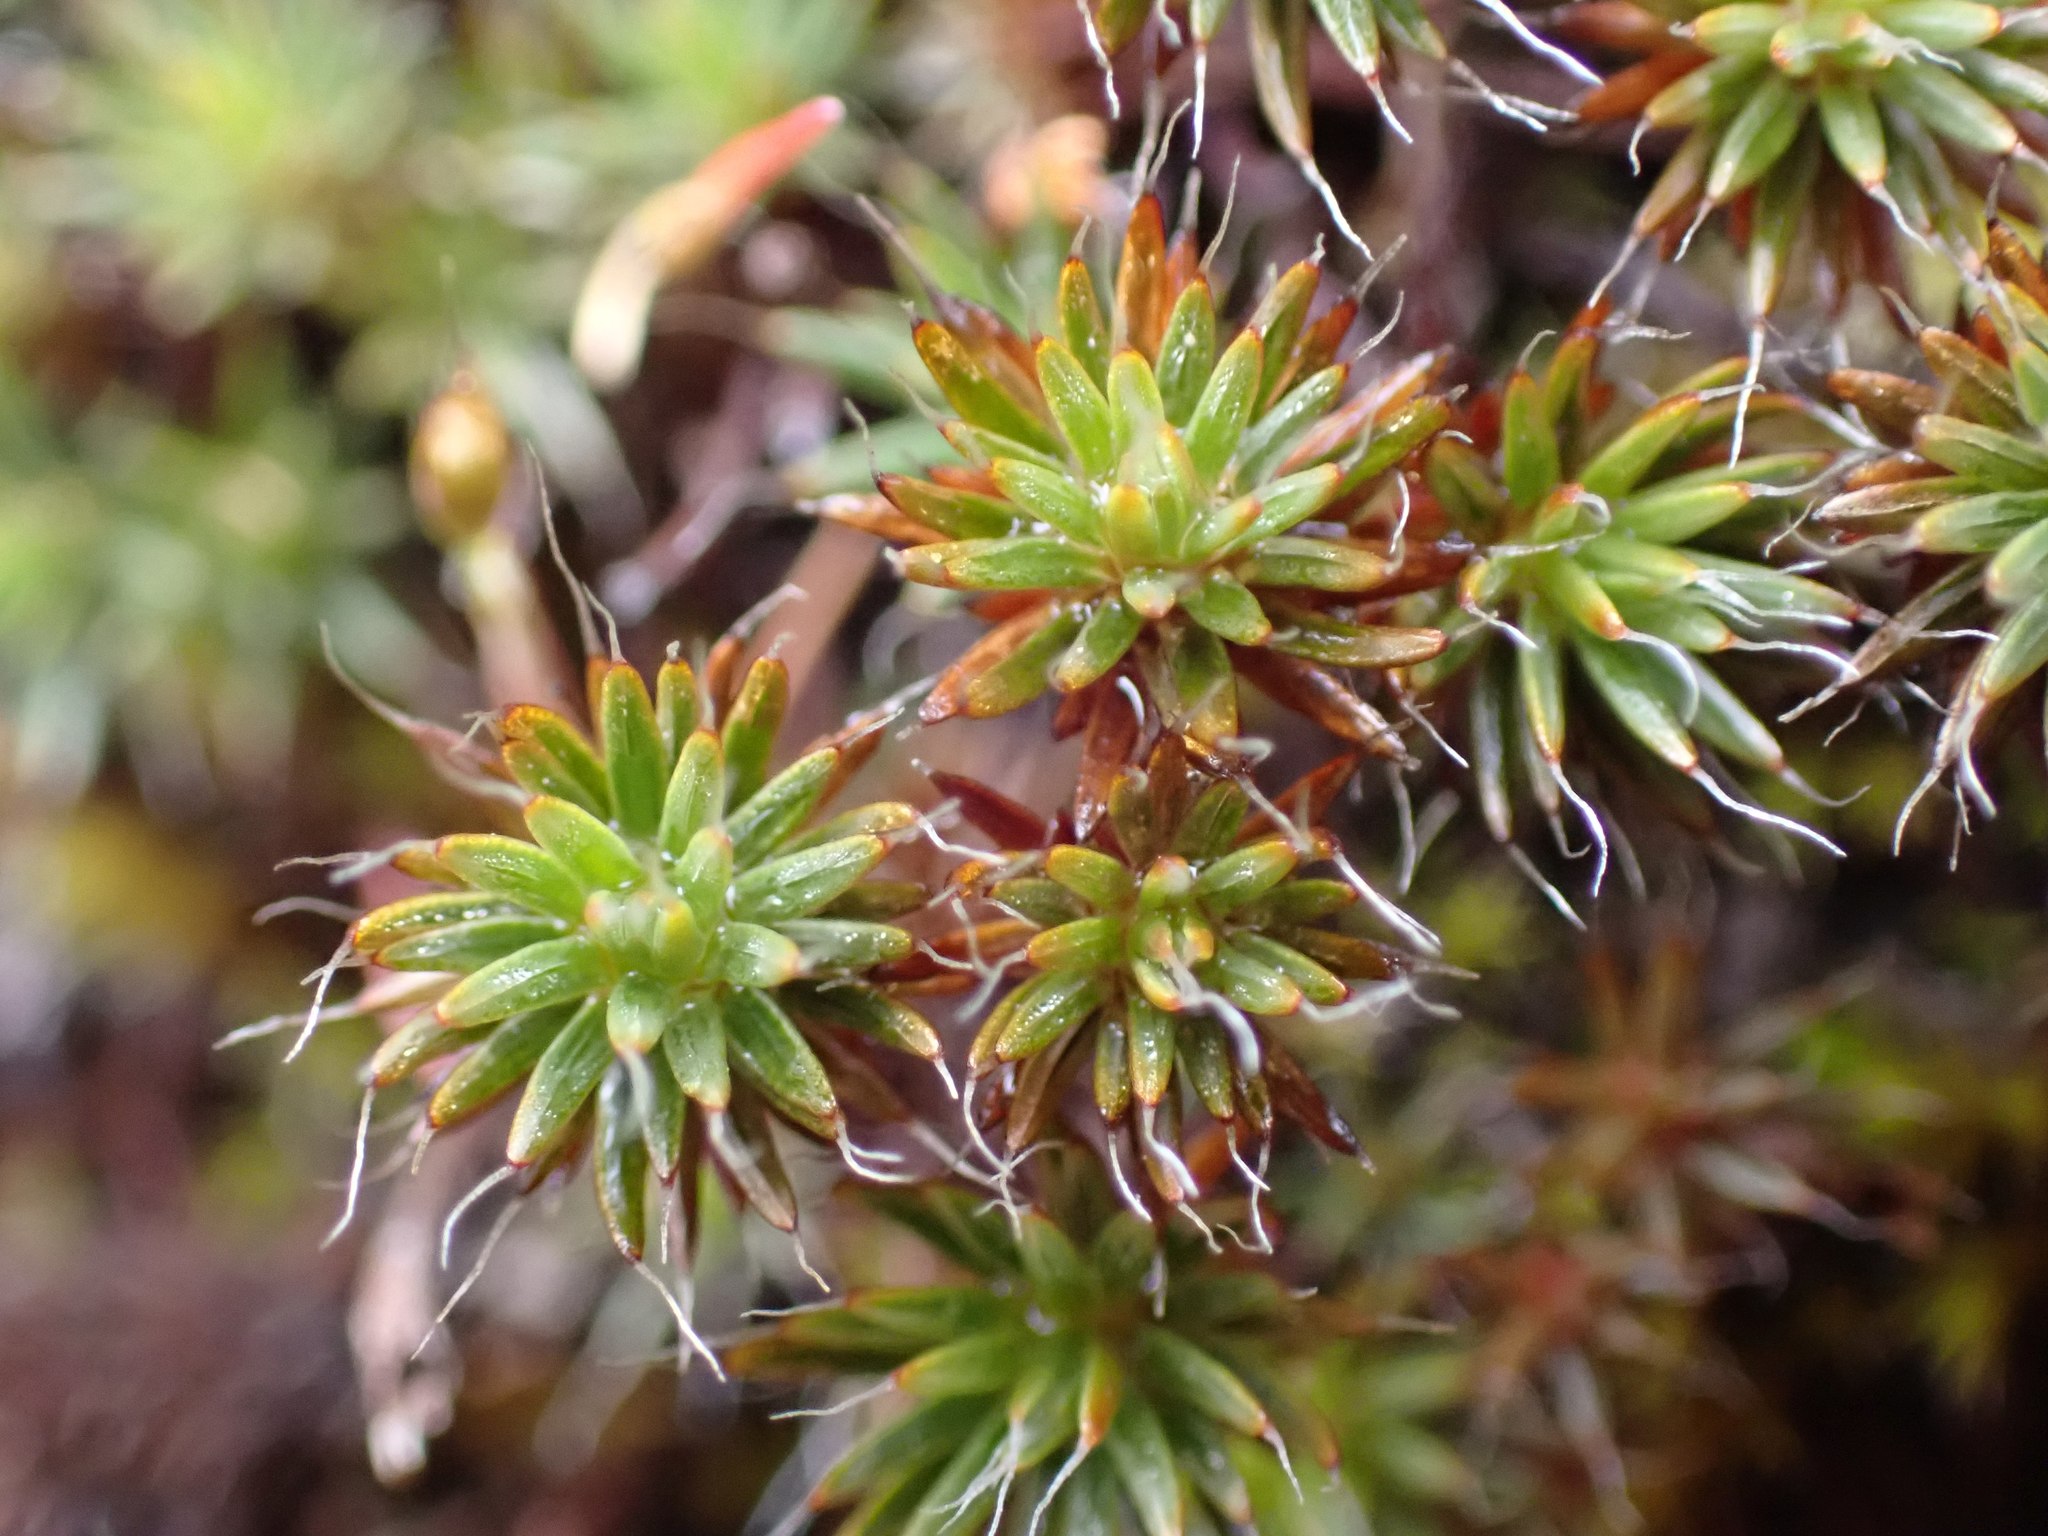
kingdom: Plantae
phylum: Bryophyta
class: Polytrichopsida
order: Polytrichales
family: Polytrichaceae
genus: Polytrichum
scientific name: Polytrichum piliferum
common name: Bristly haircap
